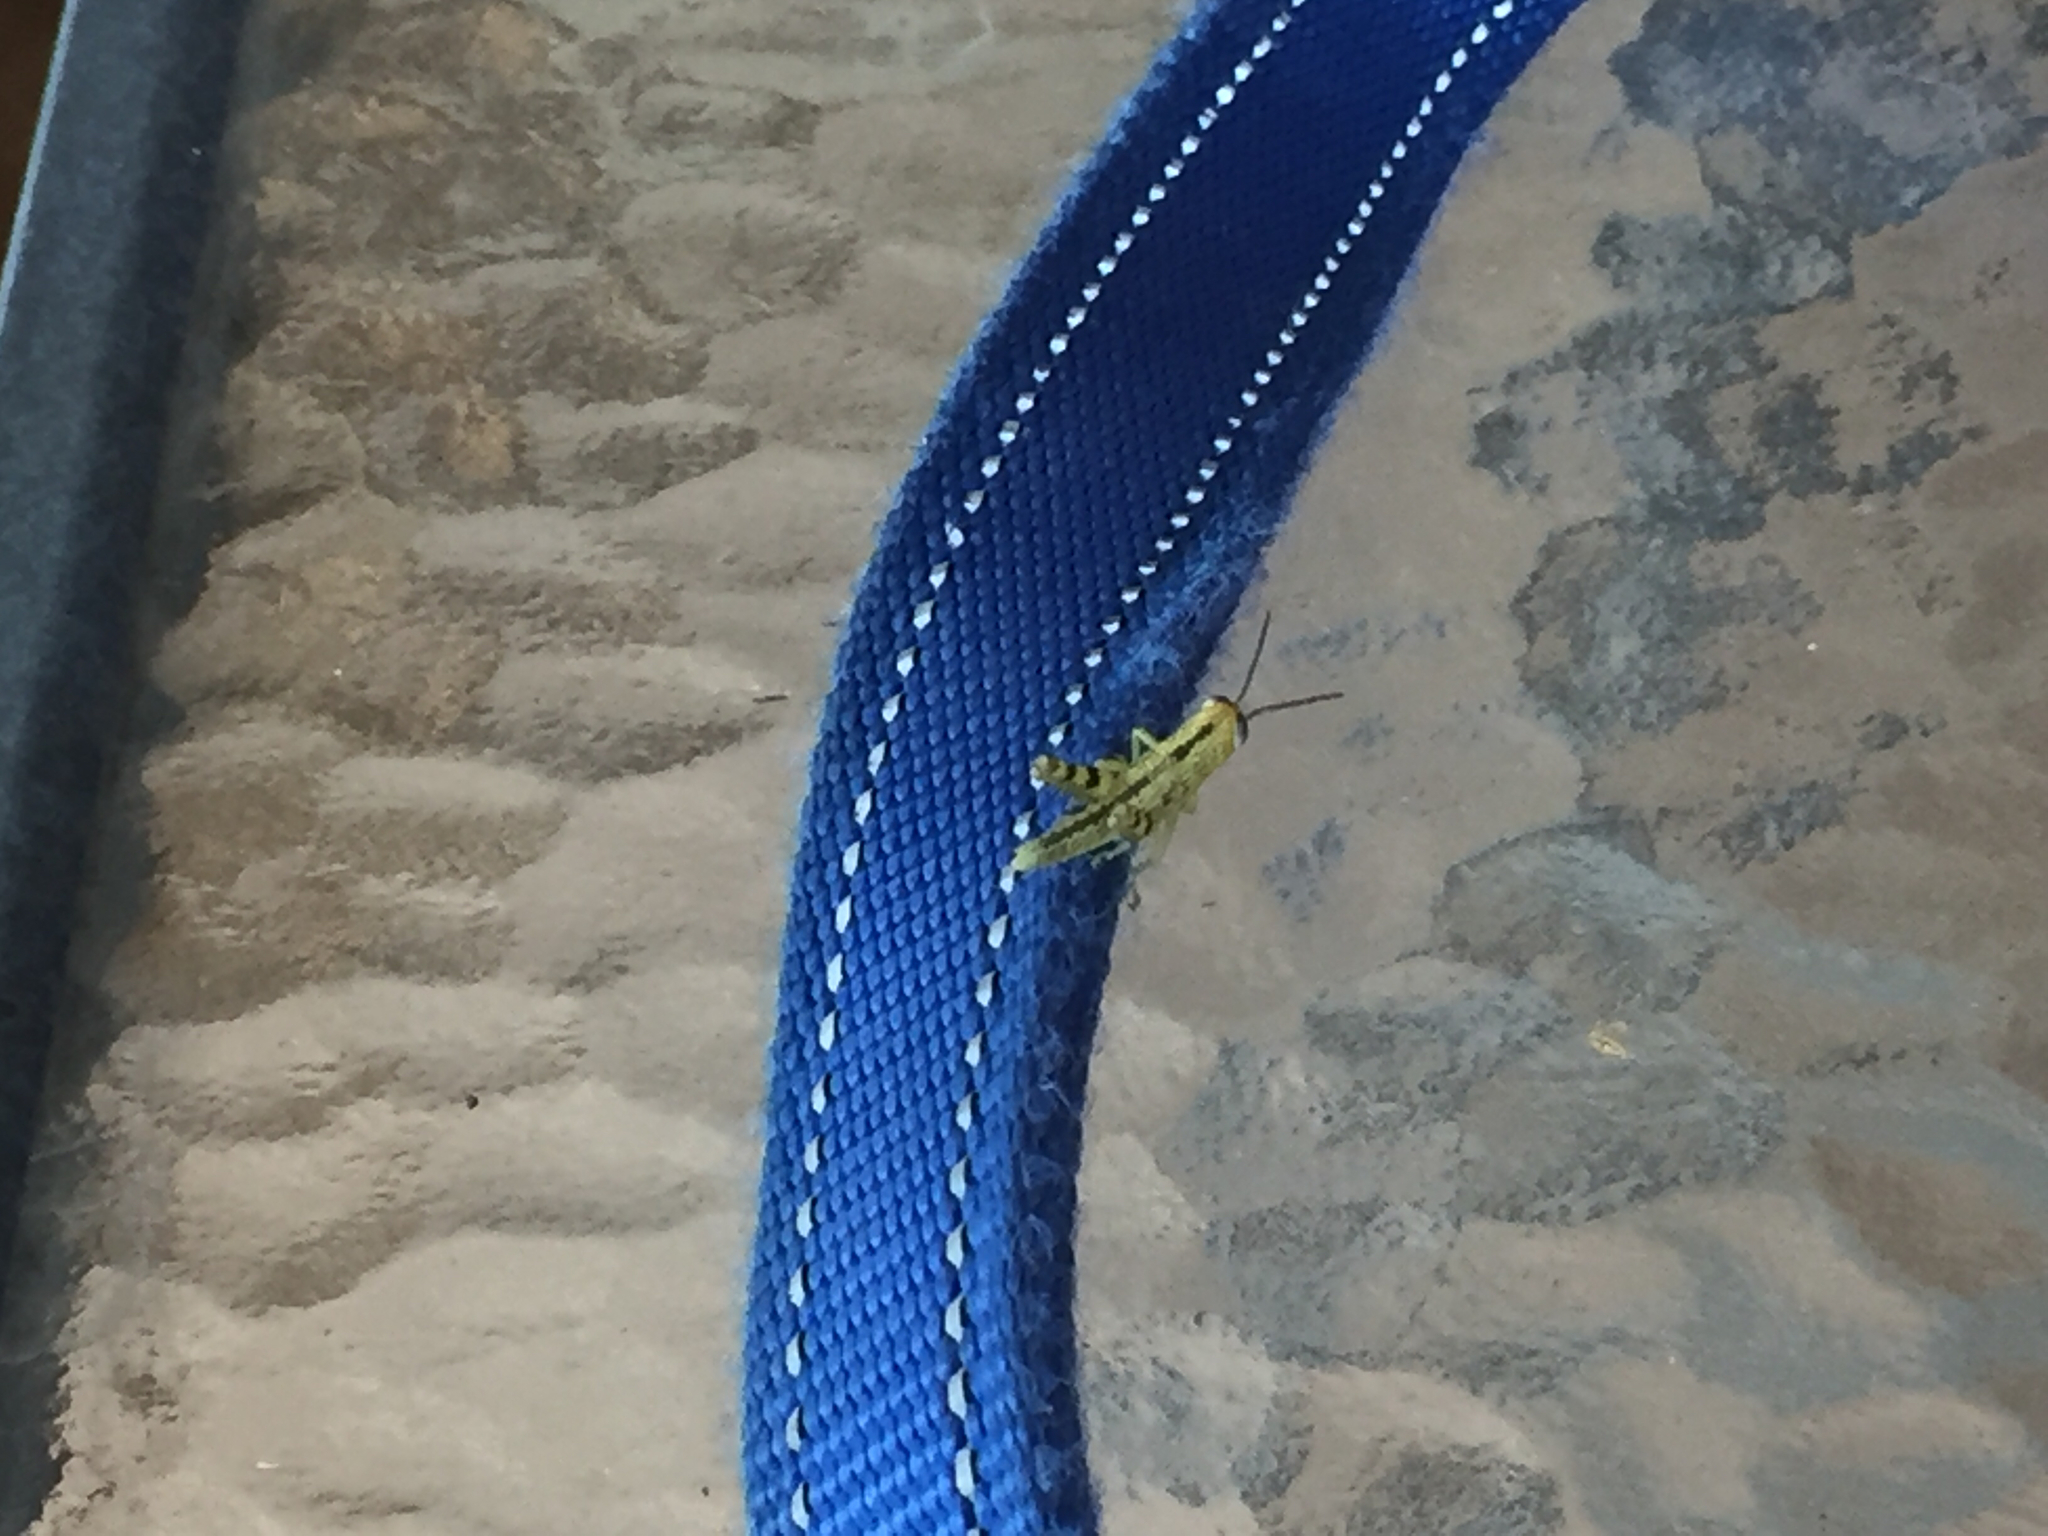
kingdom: Animalia
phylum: Arthropoda
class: Insecta
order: Orthoptera
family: Acrididae
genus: Valanga
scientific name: Valanga irregularis
